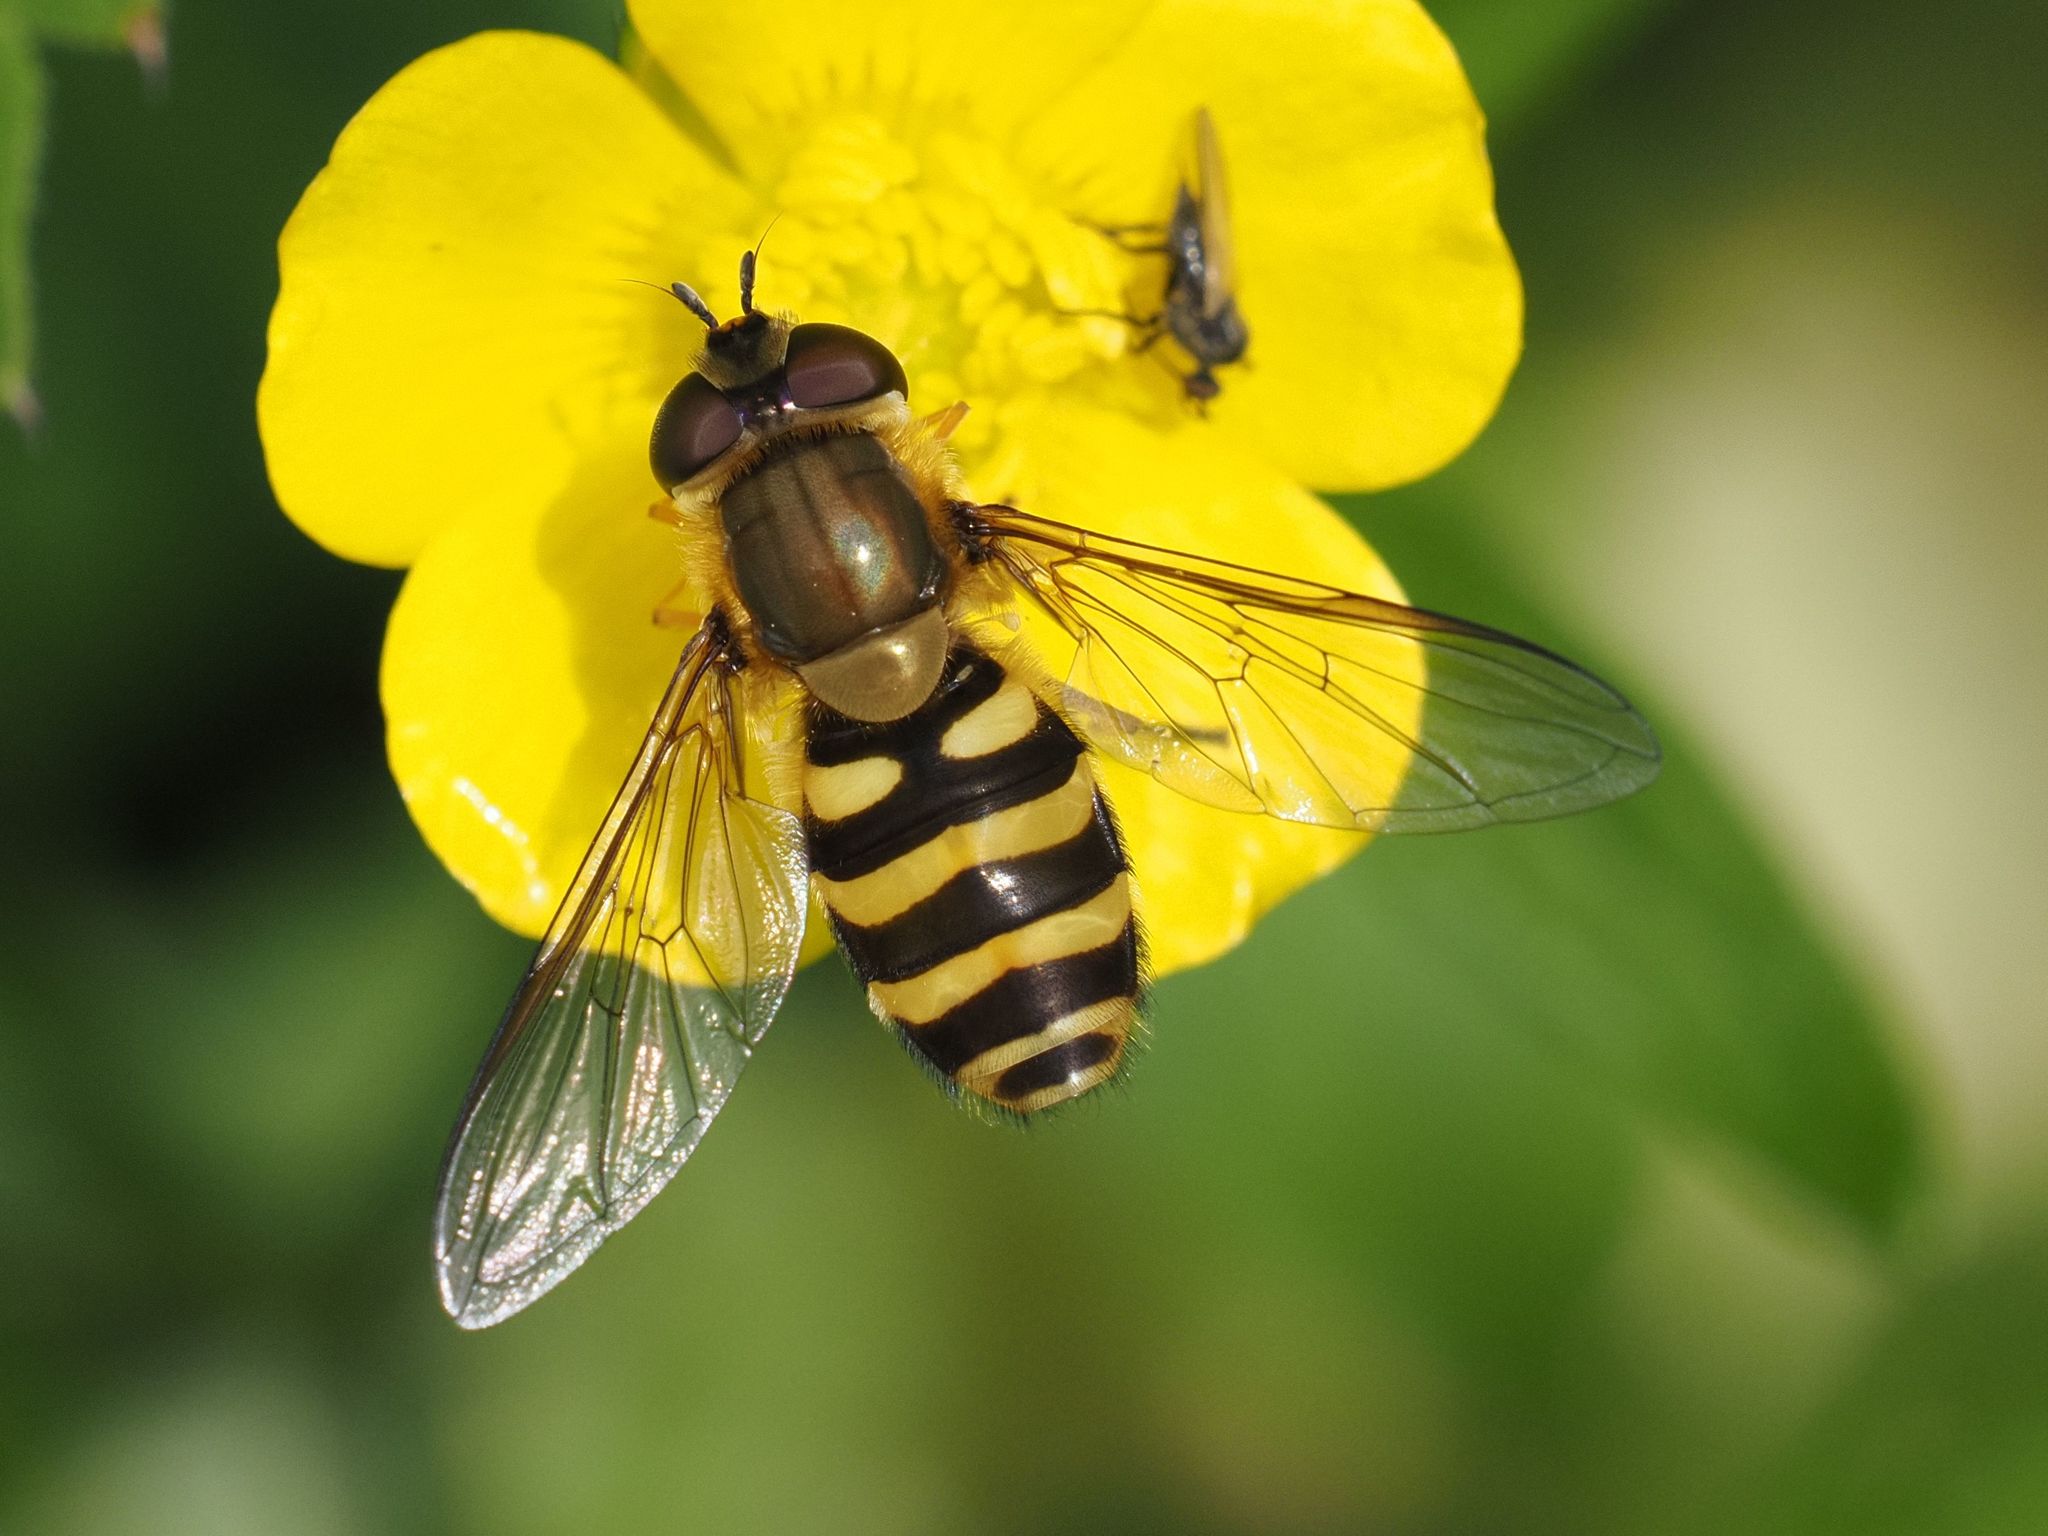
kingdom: Animalia
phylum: Arthropoda
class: Insecta
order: Diptera
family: Syrphidae
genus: Syrphus
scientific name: Syrphus
